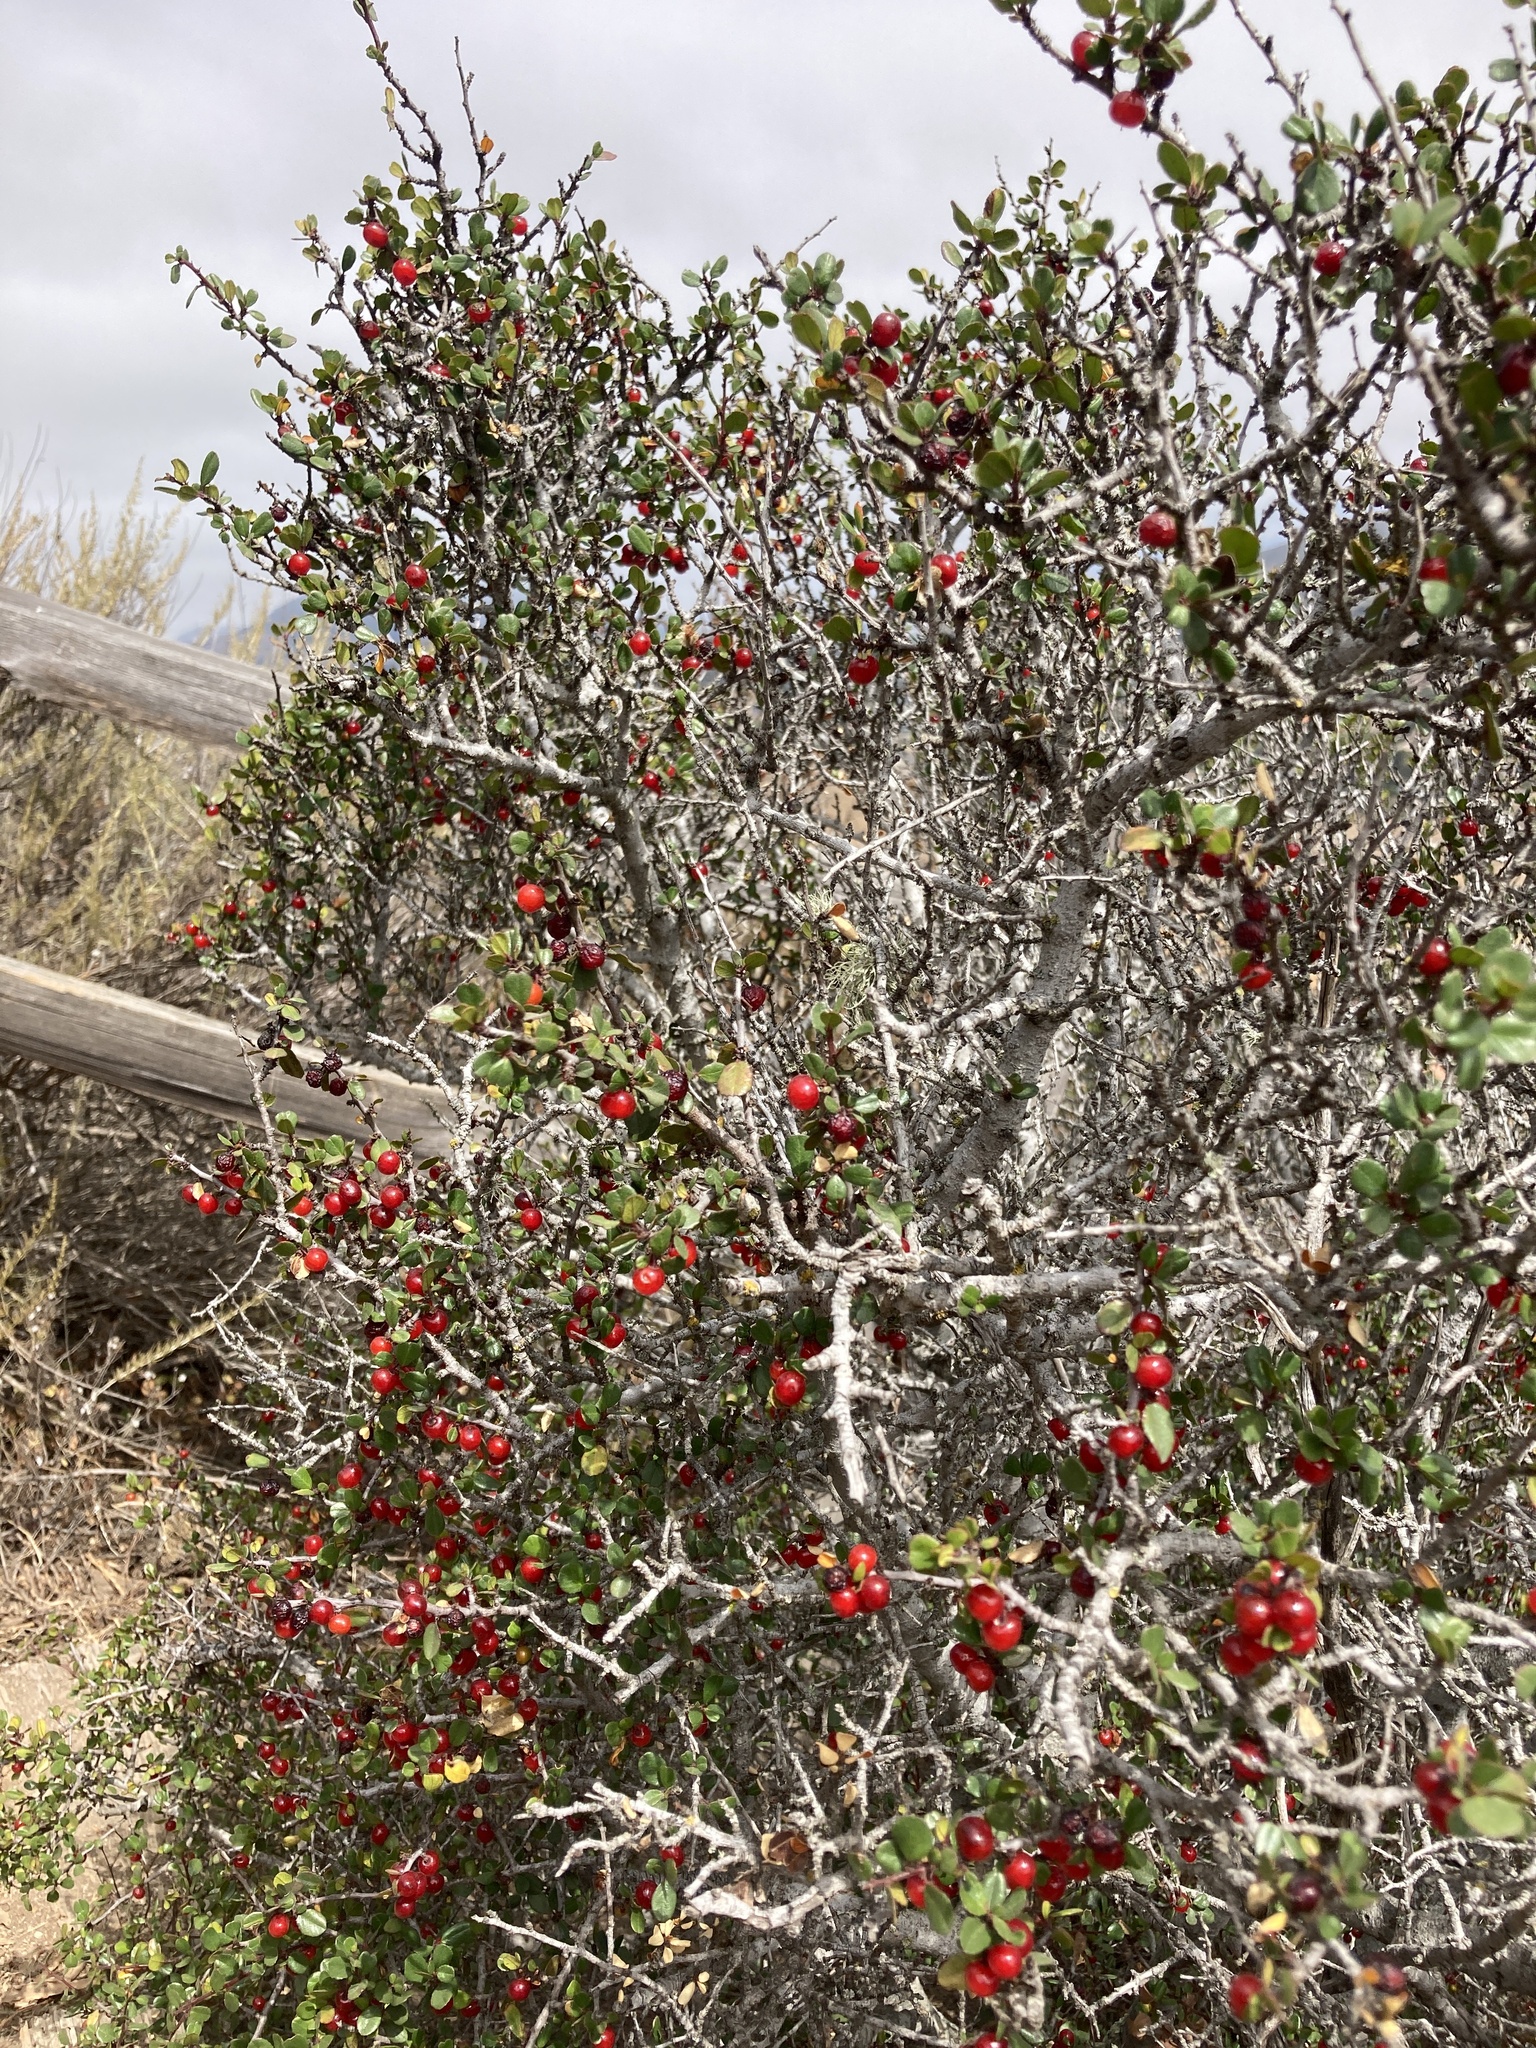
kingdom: Plantae
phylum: Tracheophyta
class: Magnoliopsida
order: Rosales
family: Rhamnaceae
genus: Endotropis
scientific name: Endotropis crocea
